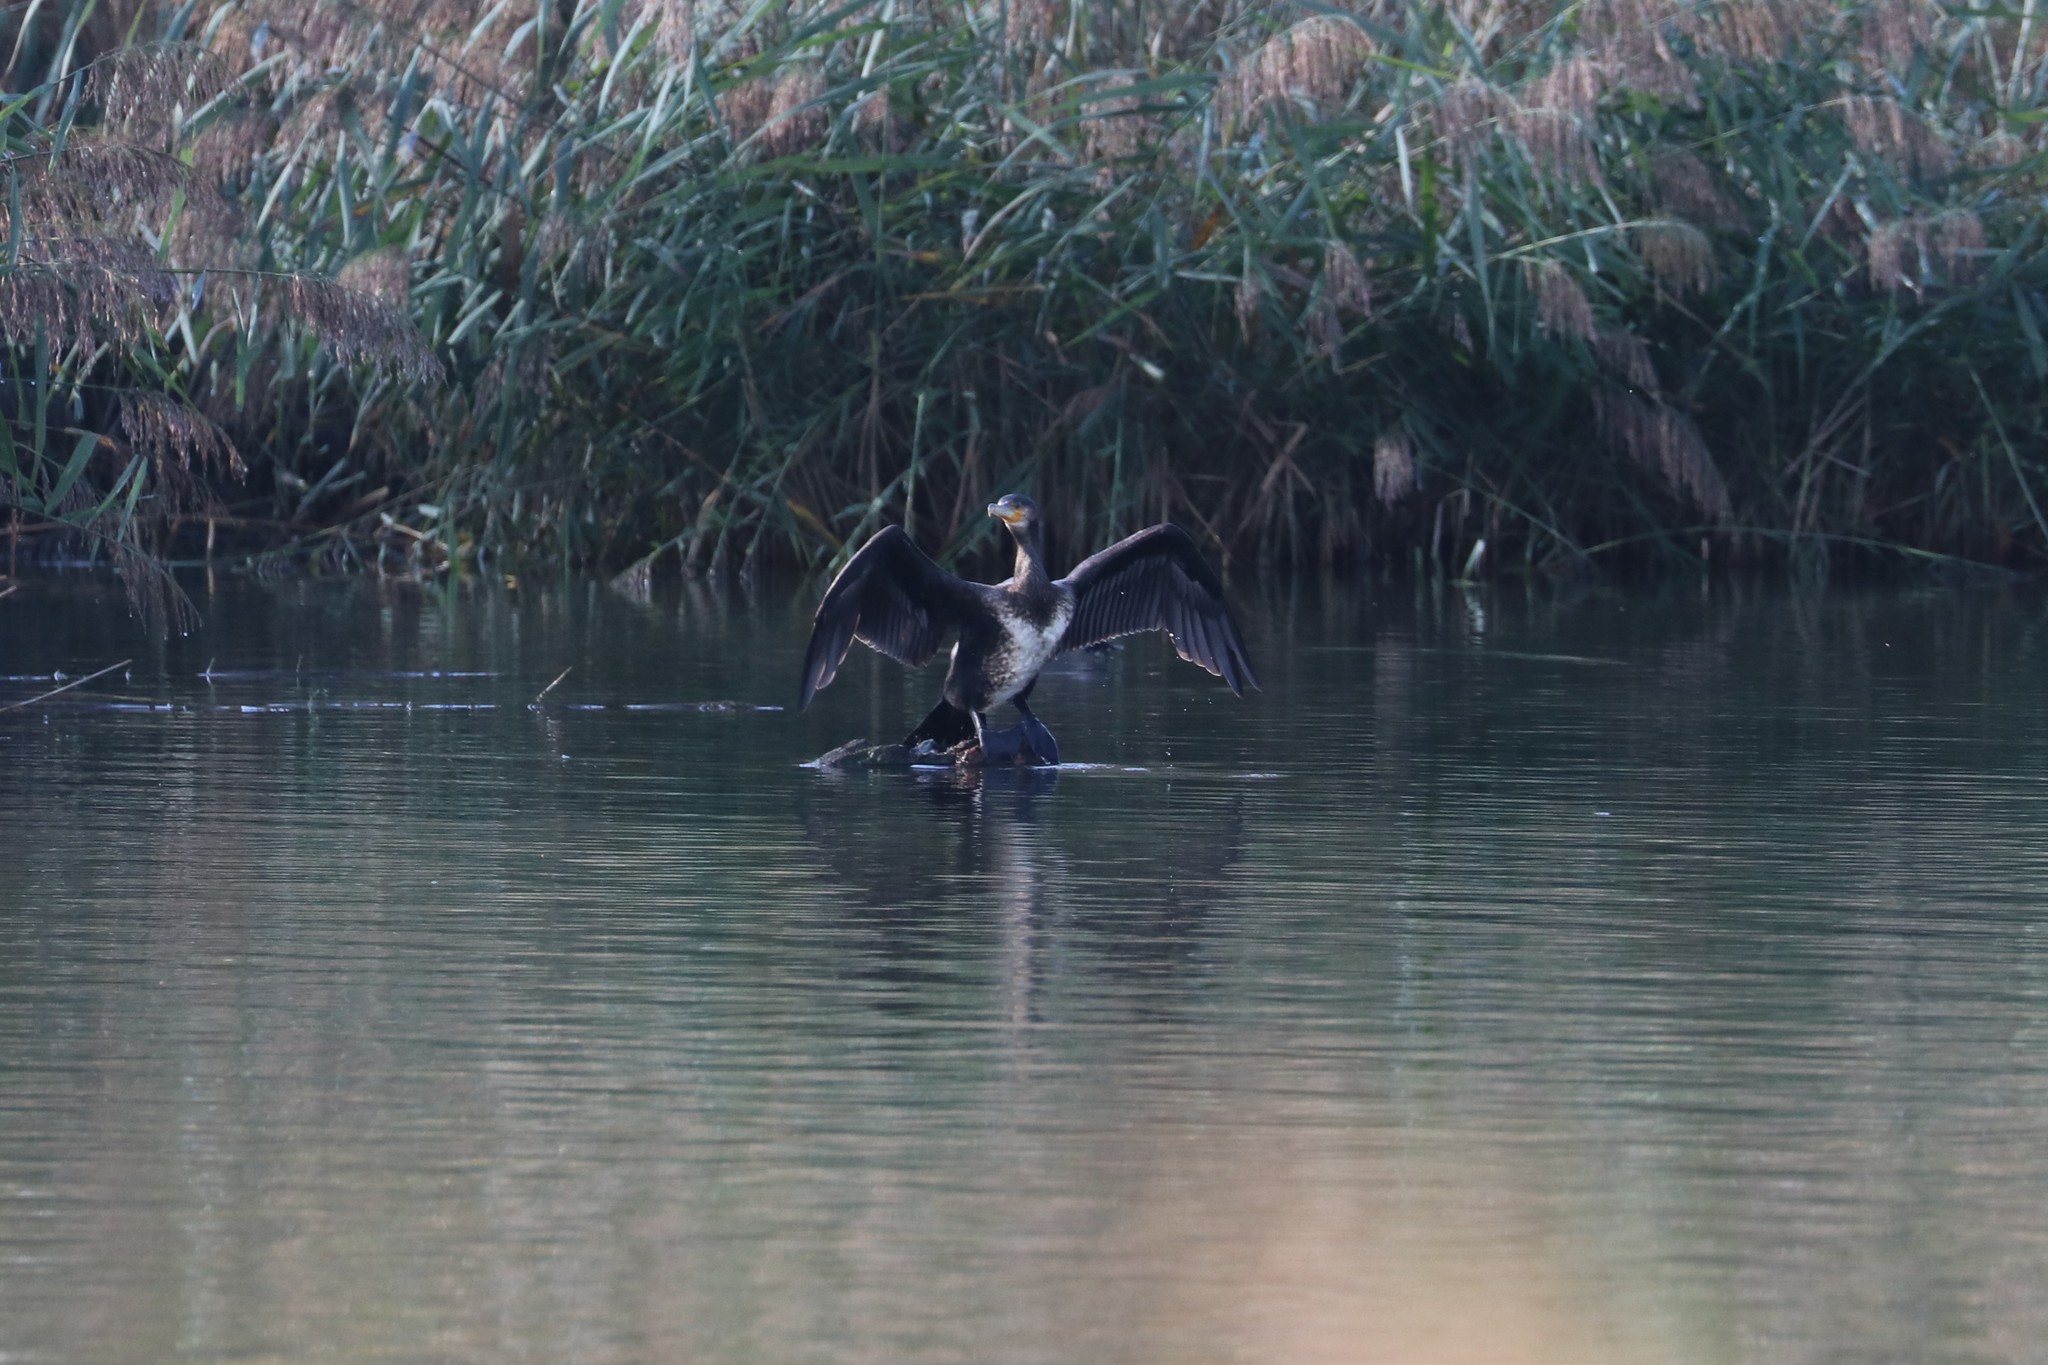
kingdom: Animalia
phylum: Chordata
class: Aves
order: Suliformes
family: Phalacrocoracidae
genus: Phalacrocorax
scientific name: Phalacrocorax carbo
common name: Great cormorant
